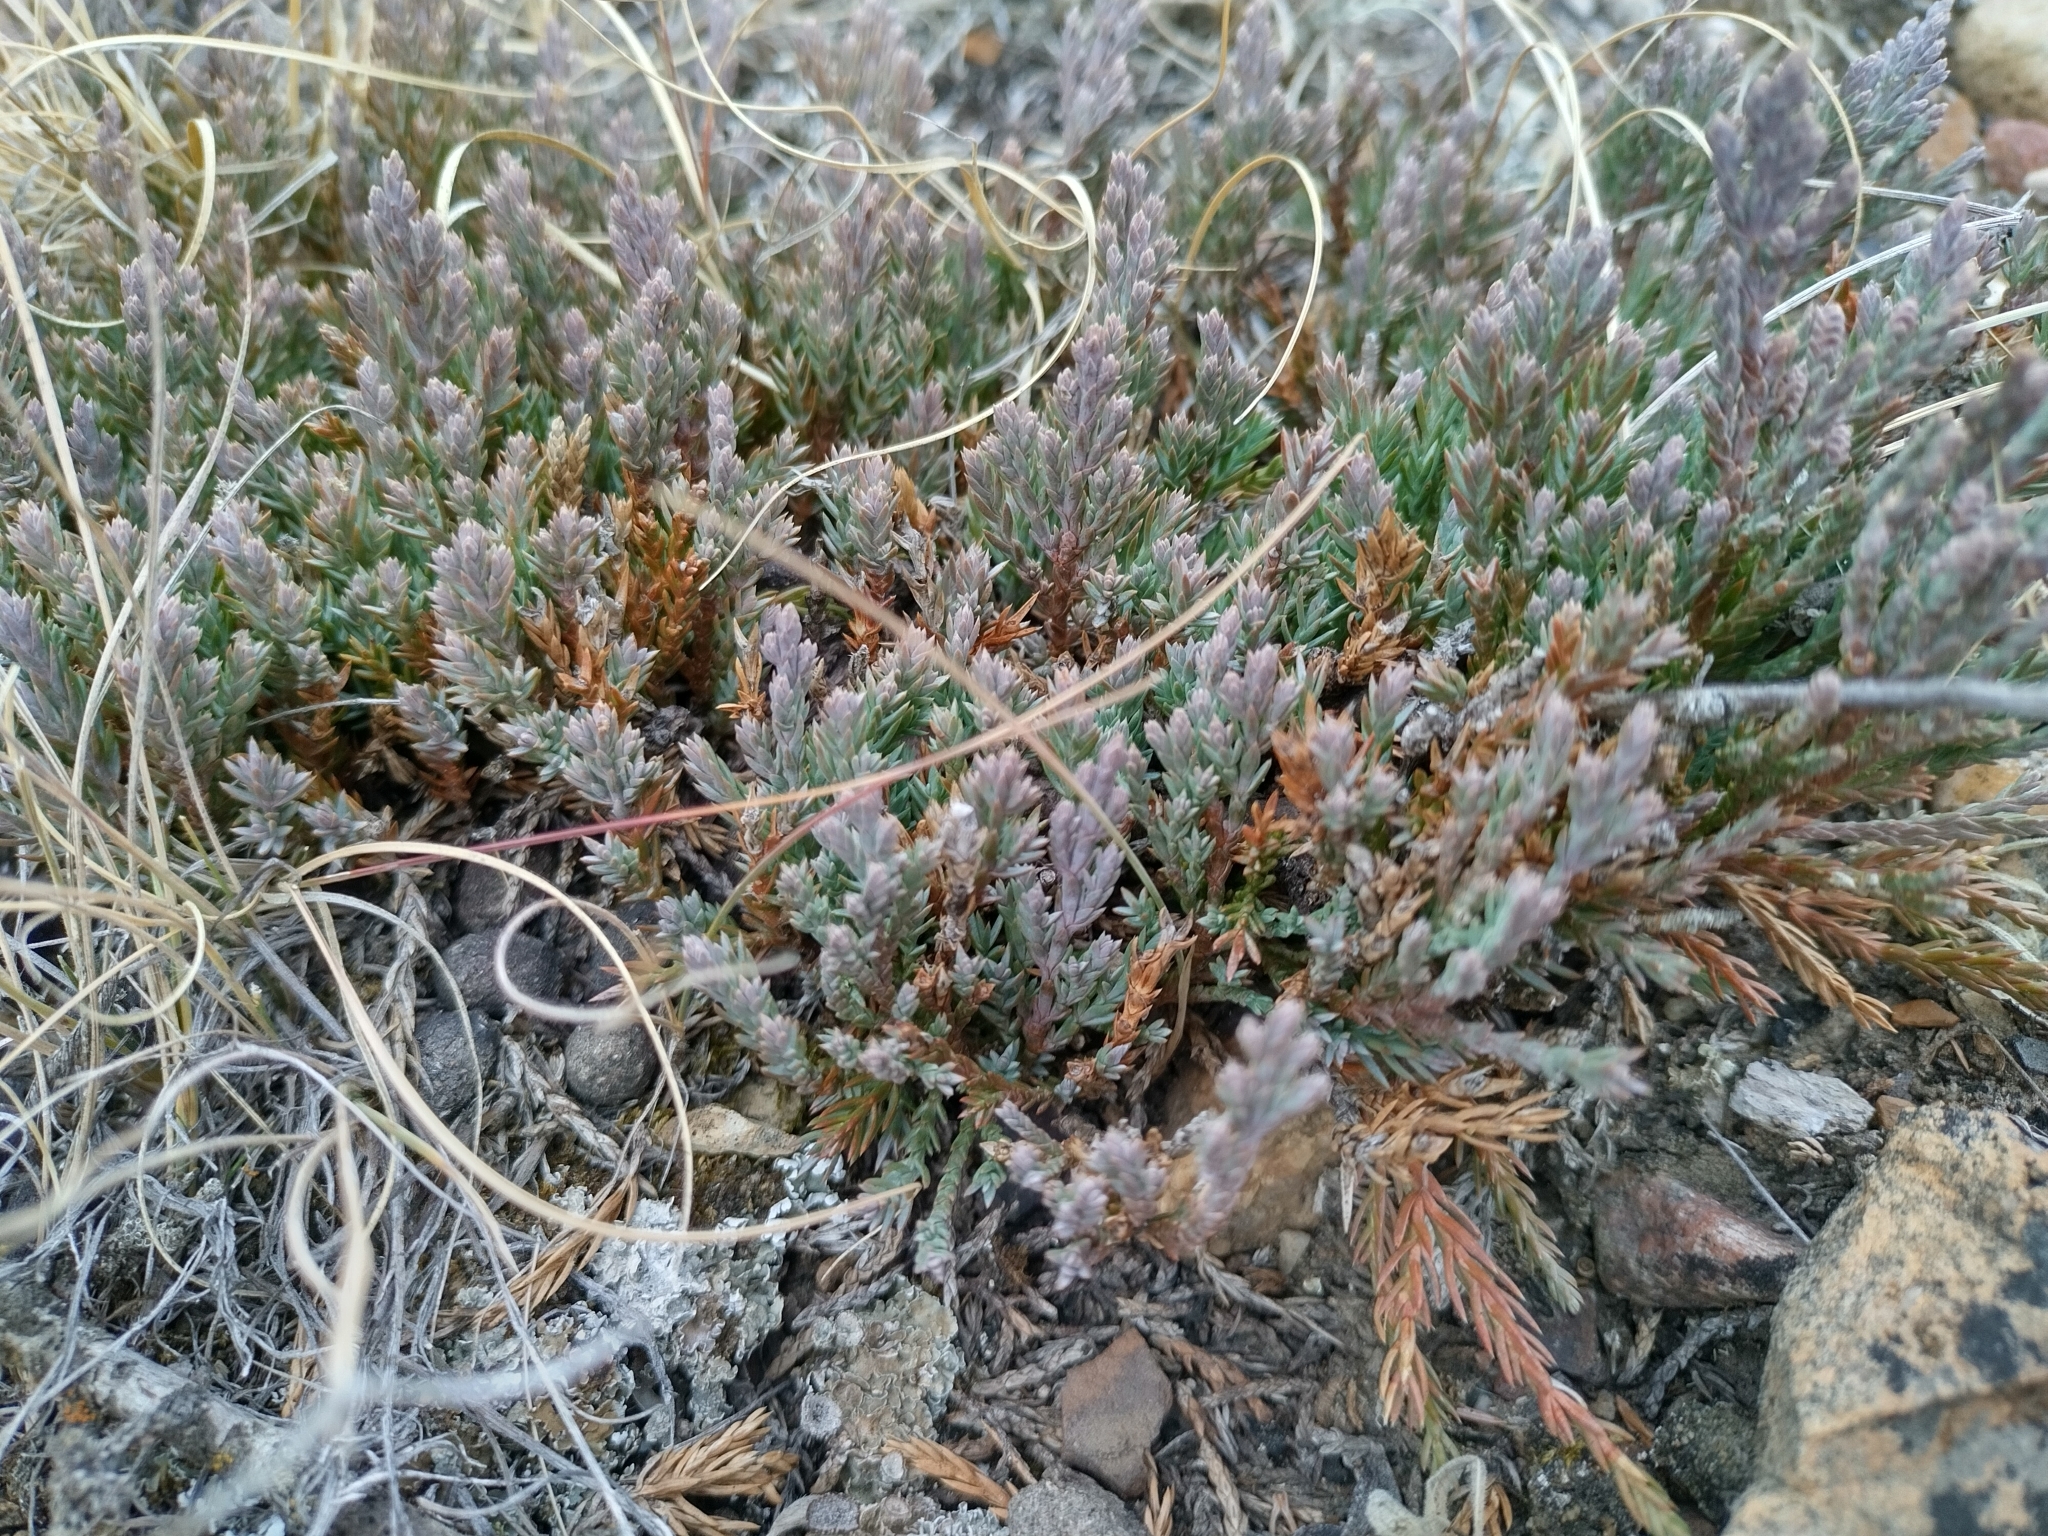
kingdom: Plantae
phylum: Tracheophyta
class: Pinopsida
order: Pinales
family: Cupressaceae
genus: Juniperus
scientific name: Juniperus horizontalis
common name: Creeping juniper
